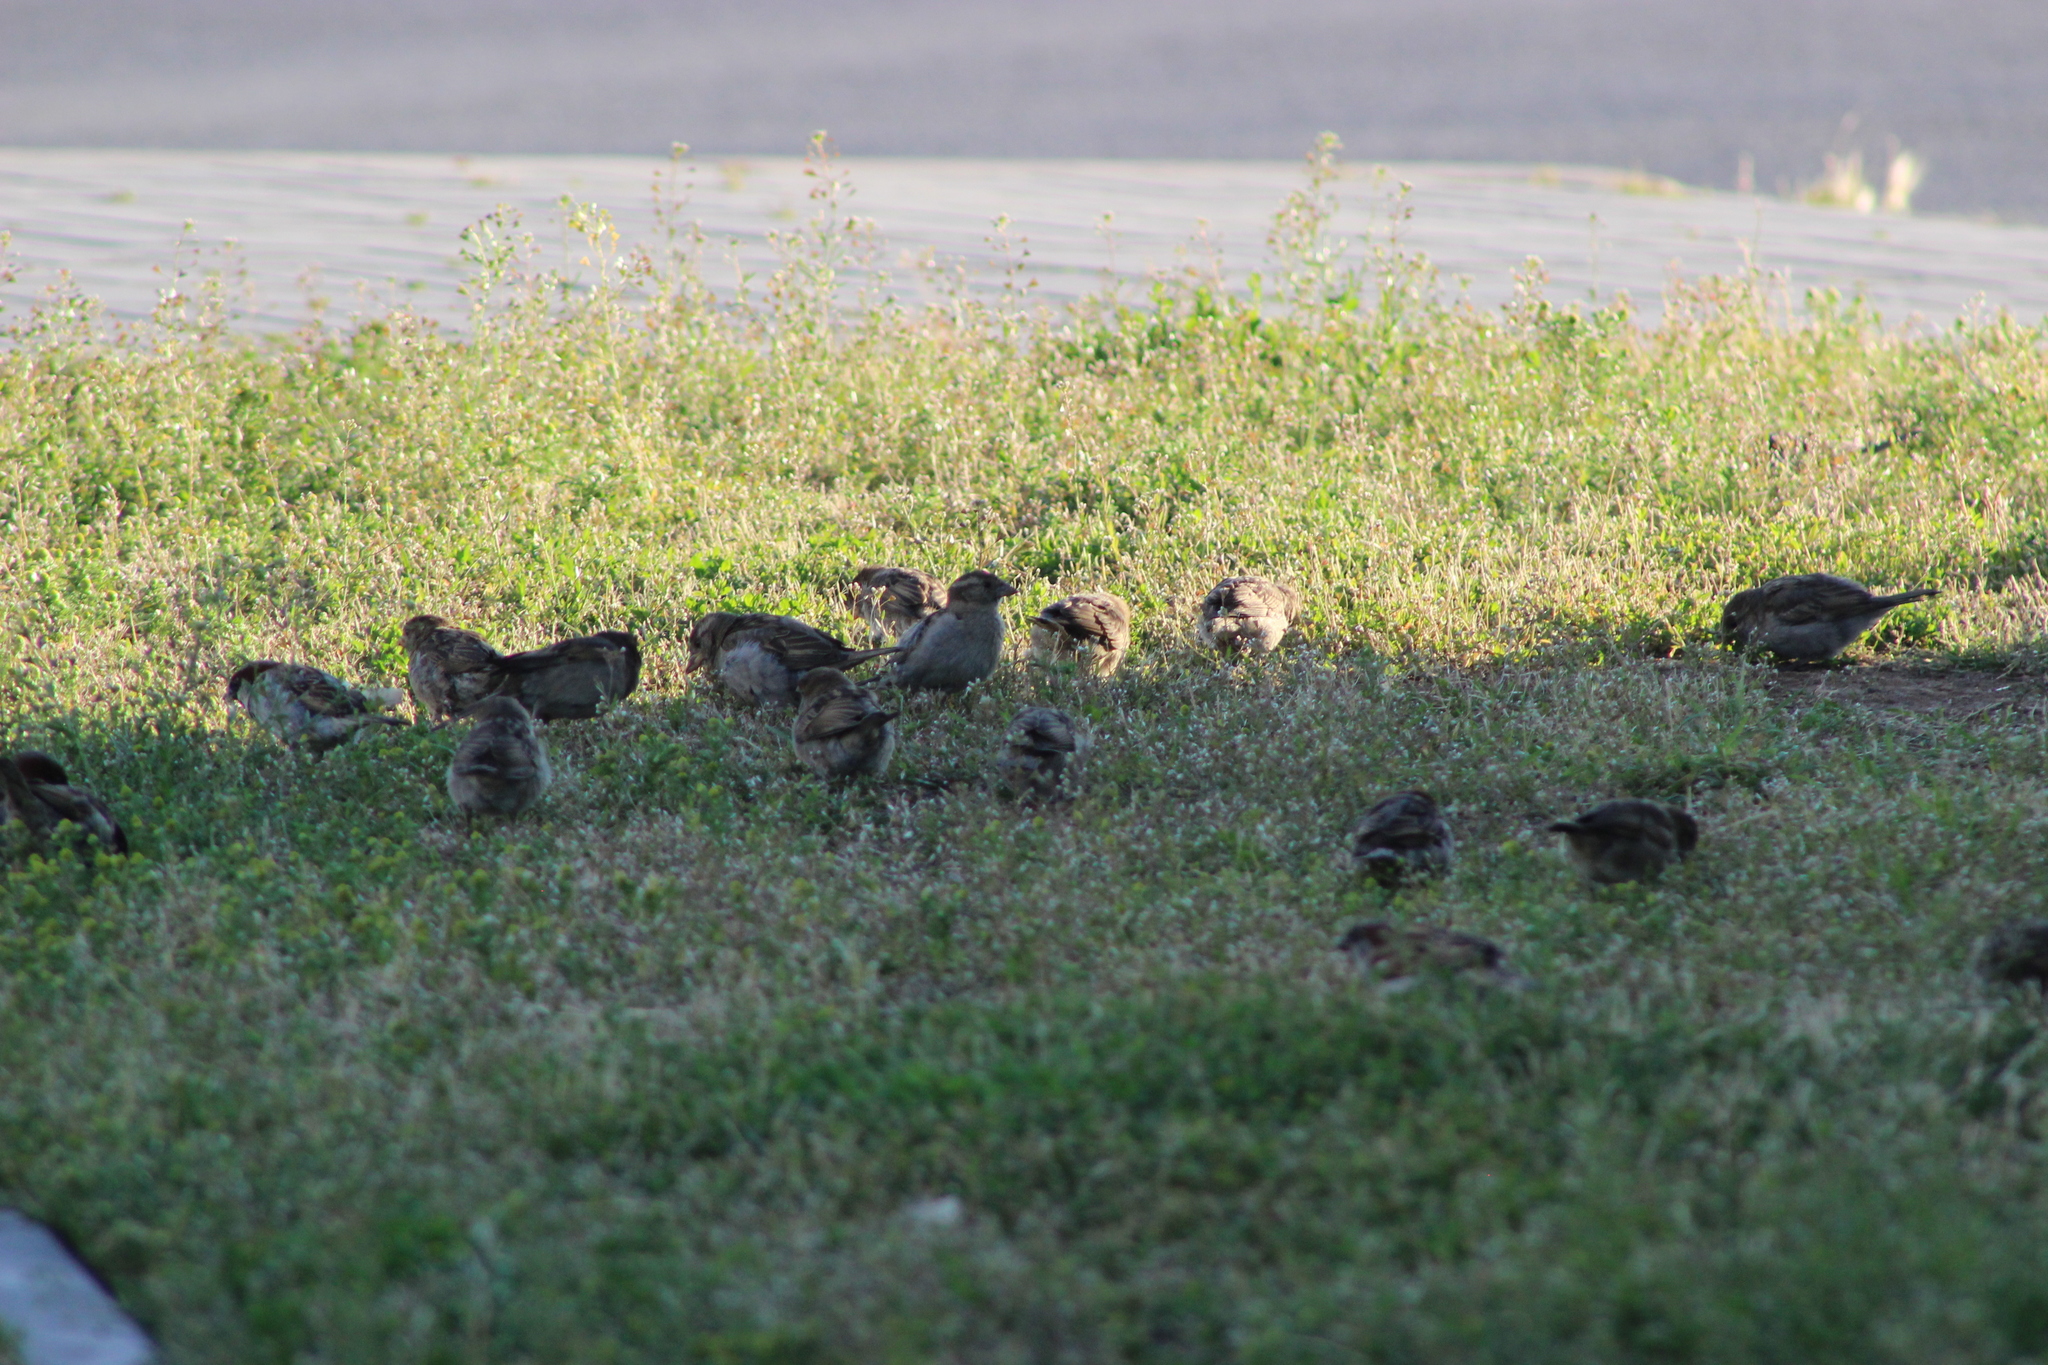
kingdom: Animalia
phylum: Chordata
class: Aves
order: Passeriformes
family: Passeridae
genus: Passer
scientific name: Passer domesticus
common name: House sparrow
